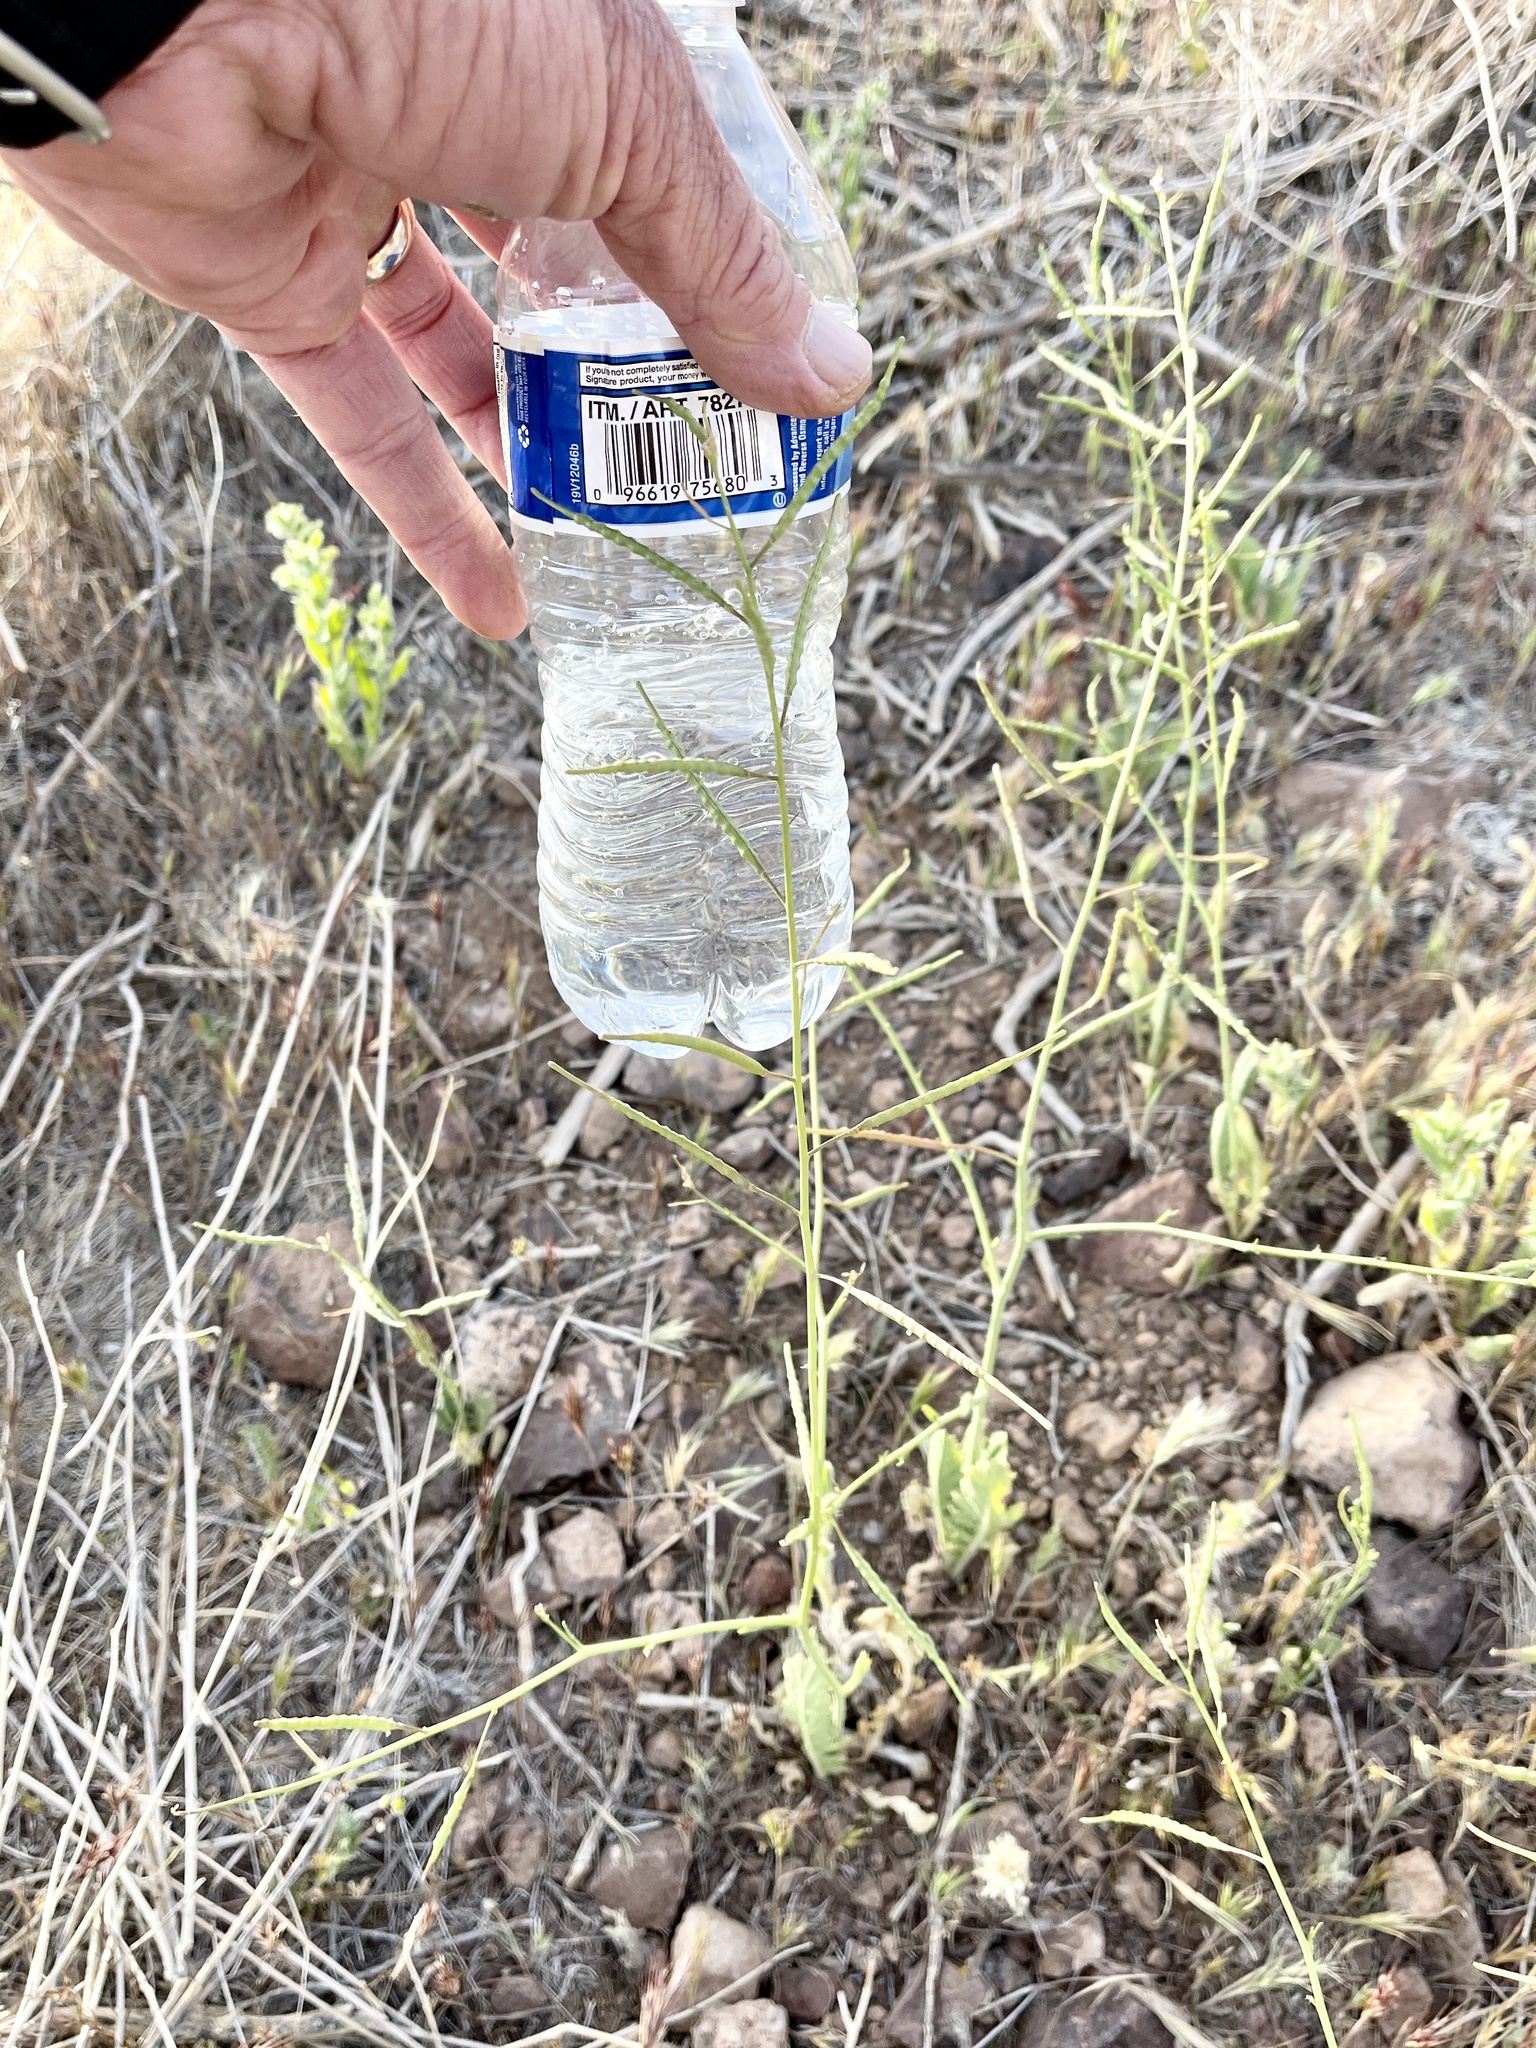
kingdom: Plantae
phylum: Tracheophyta
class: Magnoliopsida
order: Brassicales
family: Brassicaceae
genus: Brassica
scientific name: Brassica tournefortii
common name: Pale cabbage
